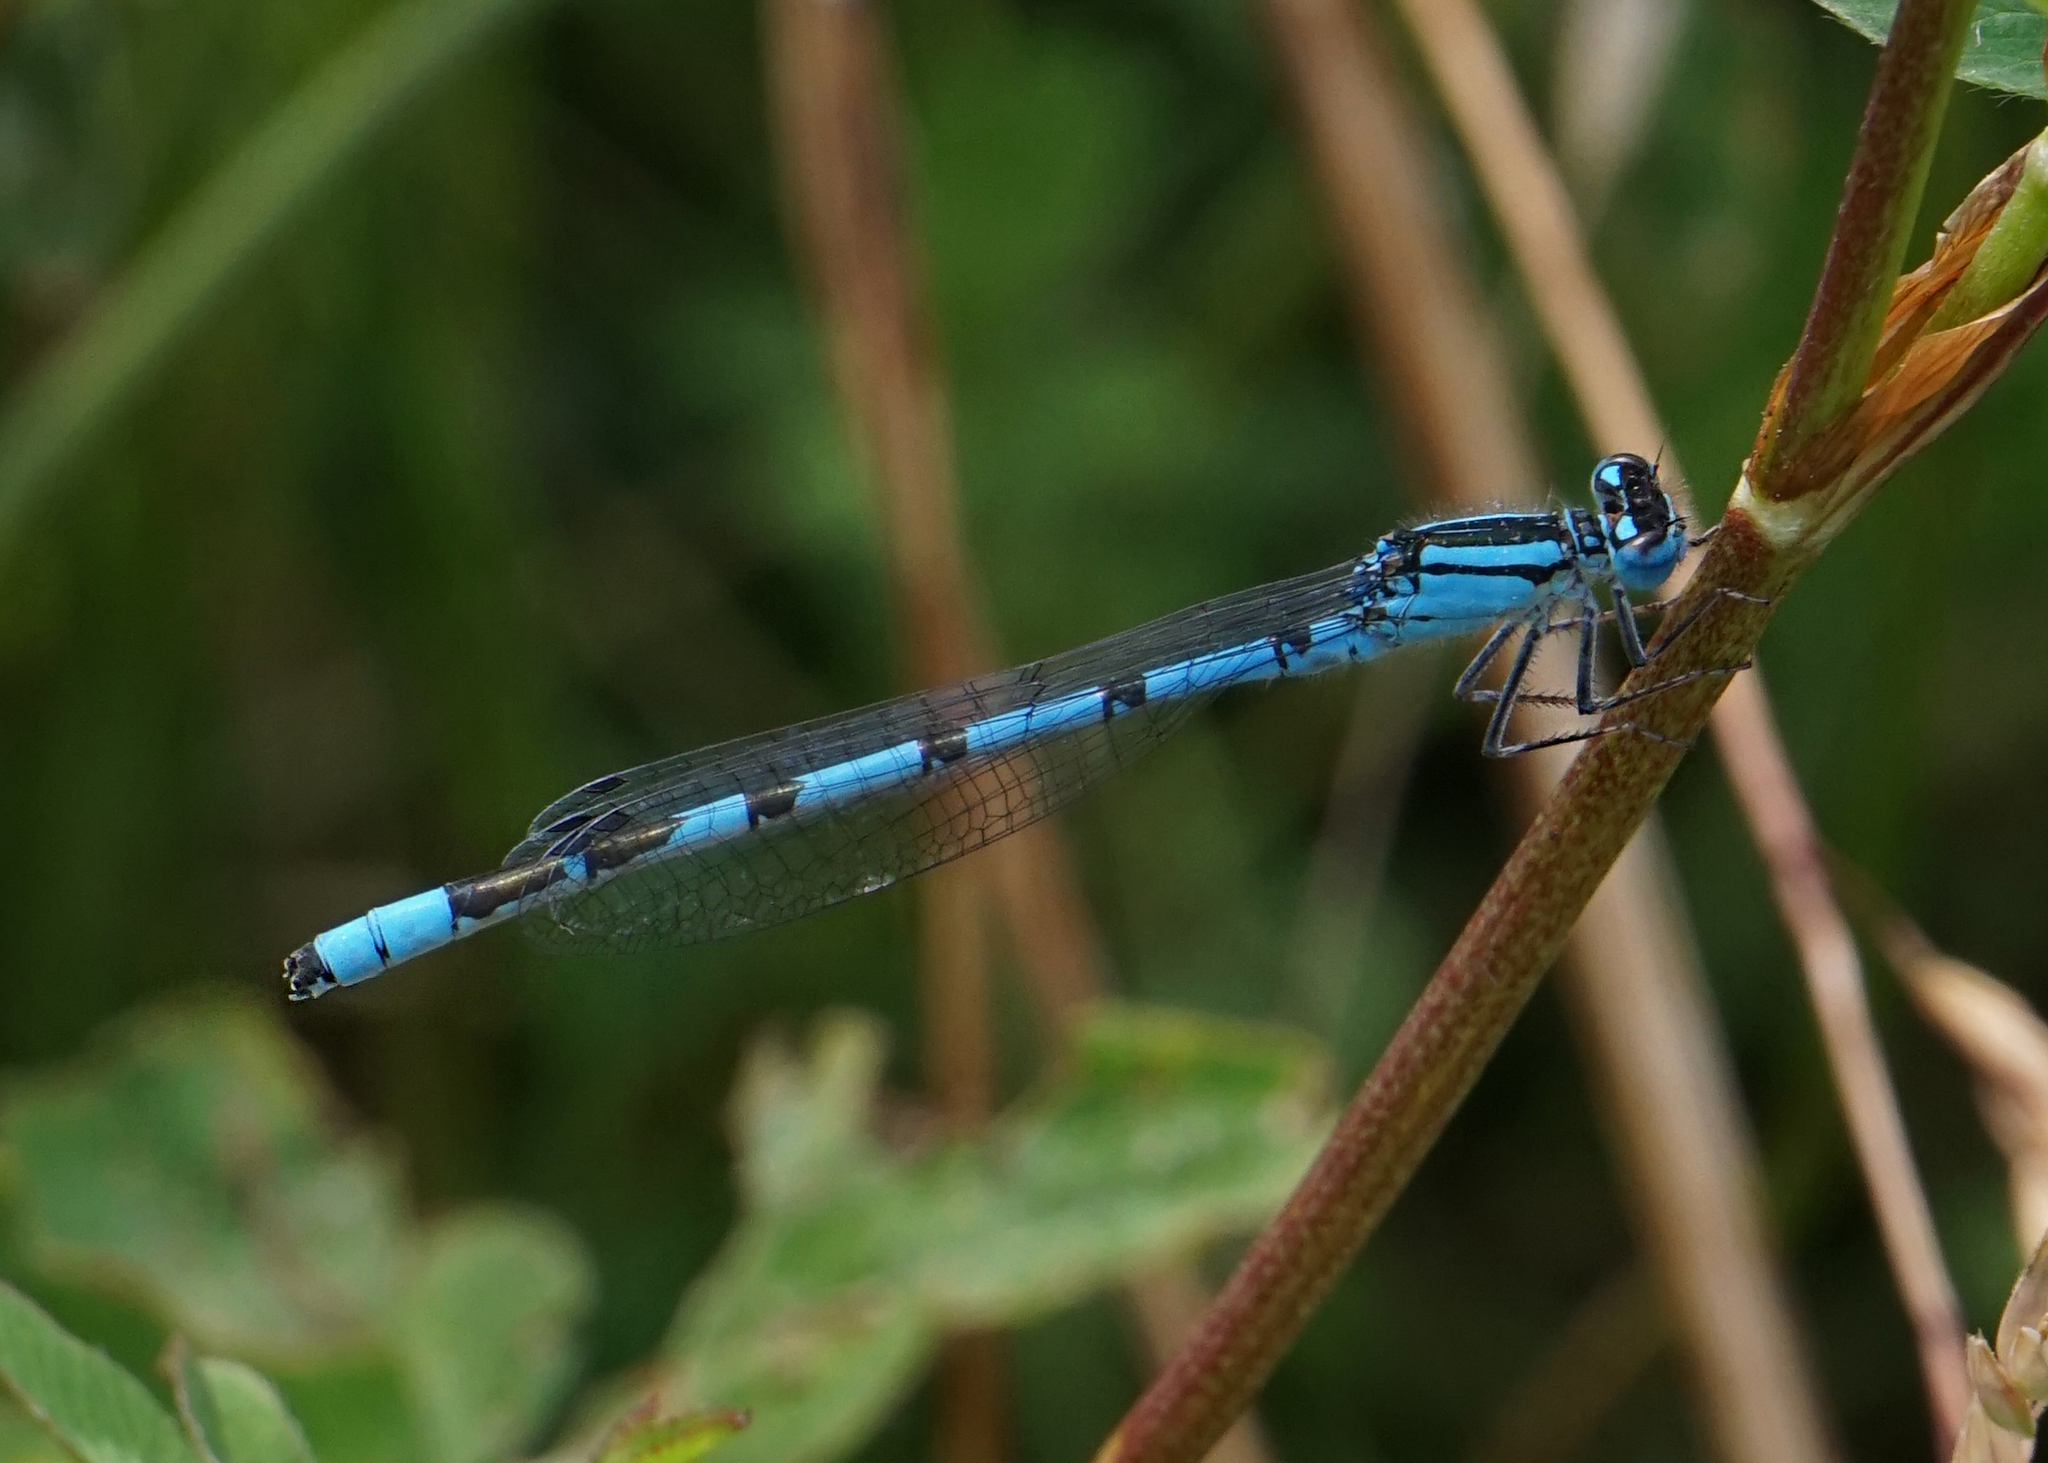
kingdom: Animalia
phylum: Arthropoda
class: Insecta
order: Odonata
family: Coenagrionidae
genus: Enallagma
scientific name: Enallagma cyathigerum
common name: Common blue damselfly
